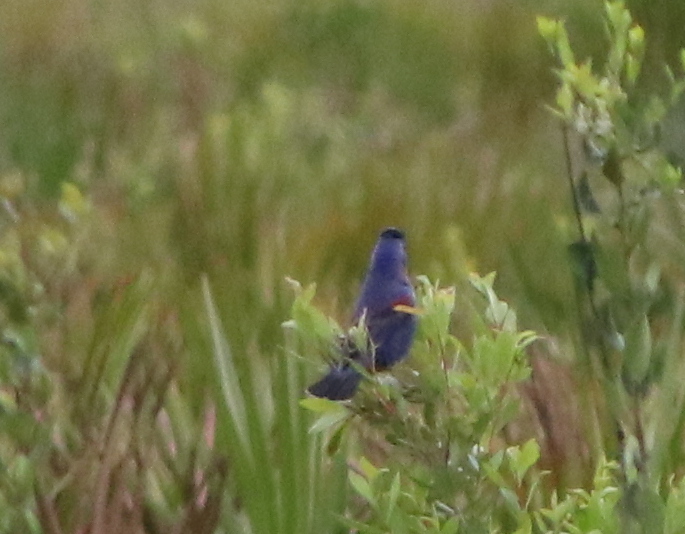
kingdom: Animalia
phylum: Chordata
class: Aves
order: Passeriformes
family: Cardinalidae
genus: Passerina
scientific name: Passerina caerulea
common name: Blue grosbeak
